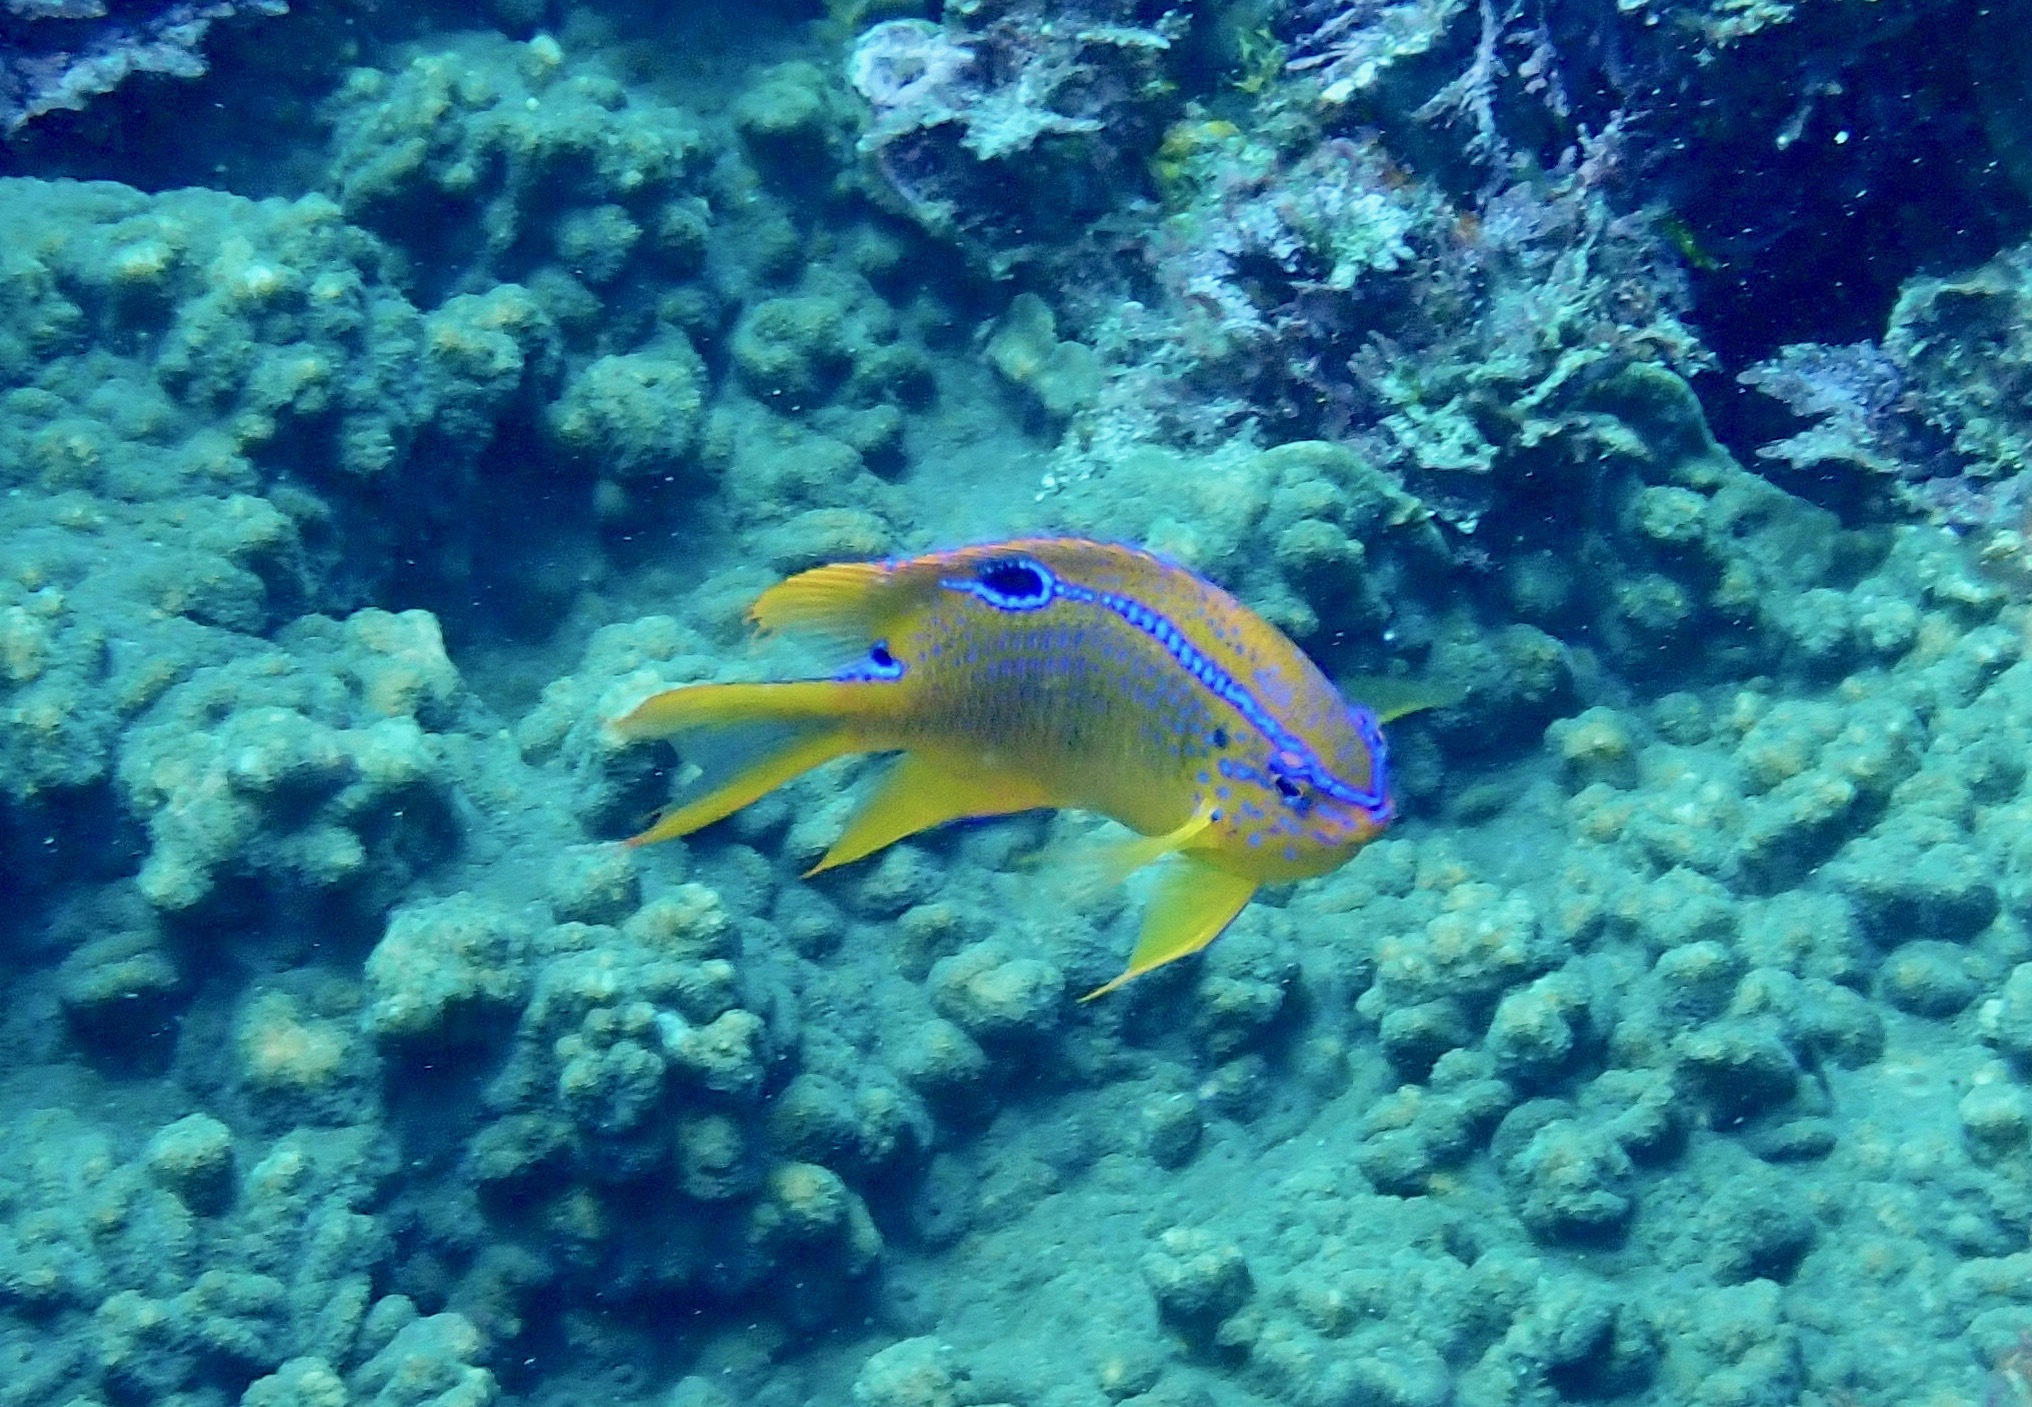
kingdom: Animalia
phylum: Chordata
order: Perciformes
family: Pomacentridae
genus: Neoglyphidodon
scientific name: Neoglyphidodon polyacanthus
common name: Multi-spined damsel
